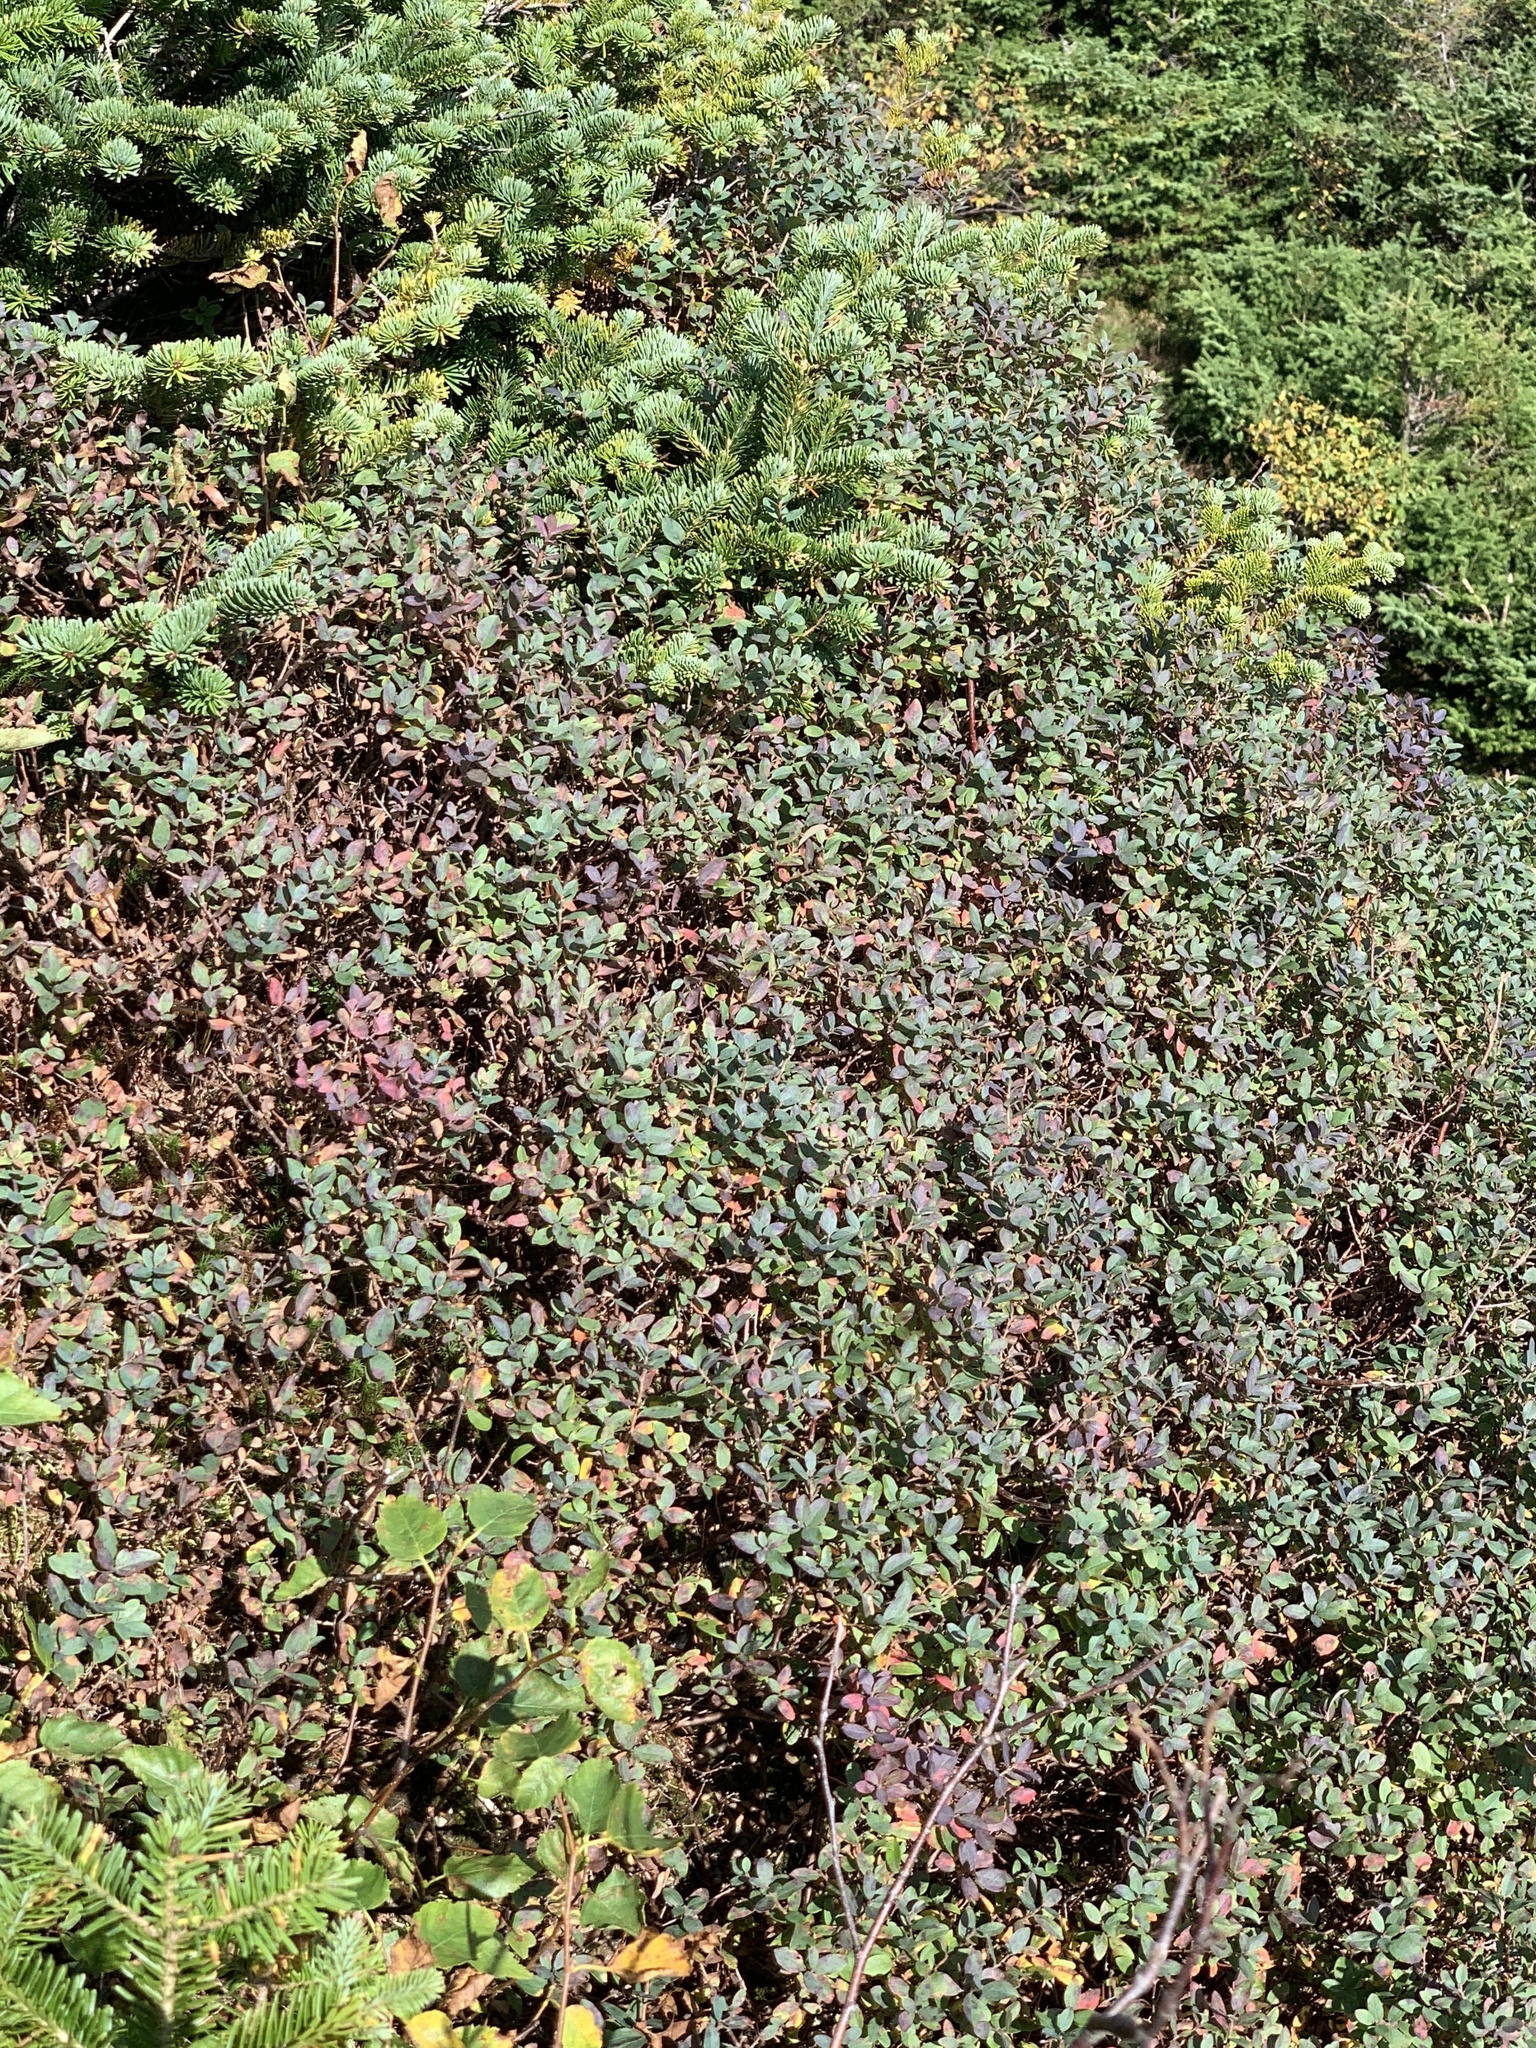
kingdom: Plantae
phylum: Tracheophyta
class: Magnoliopsida
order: Ericales
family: Ericaceae
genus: Vaccinium
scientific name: Vaccinium uliginosum
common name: Bog bilberry
